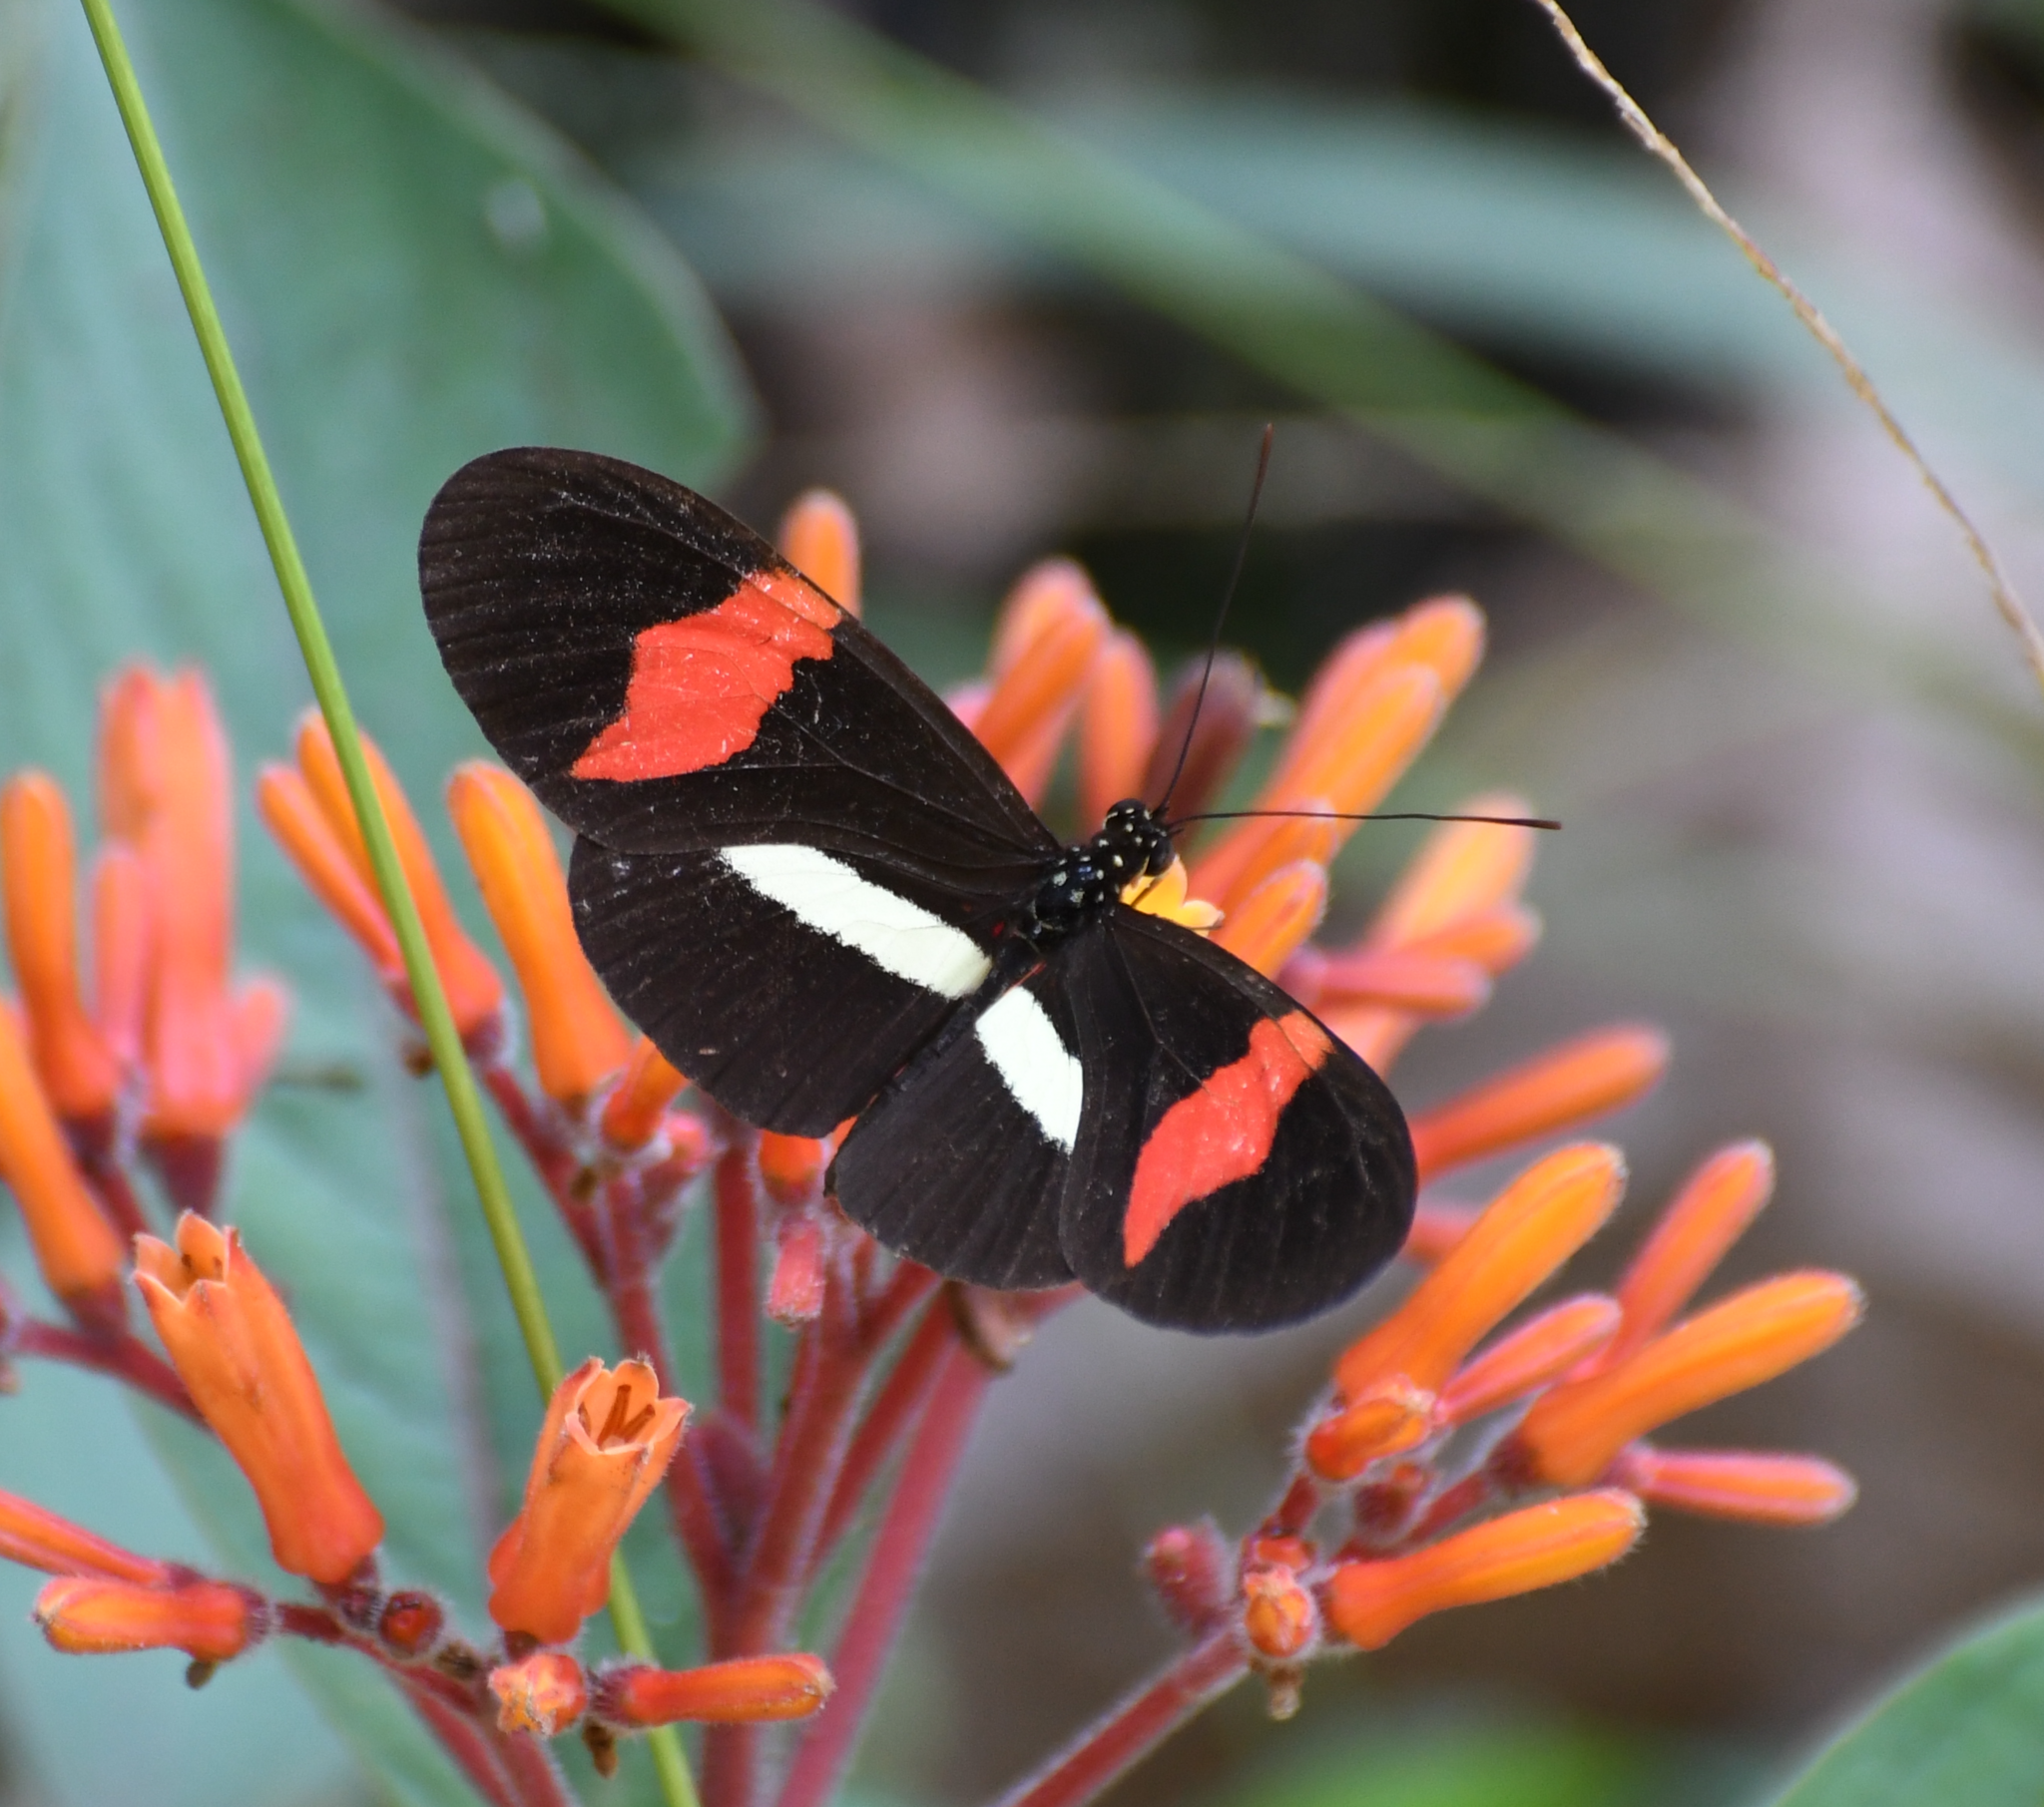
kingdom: Animalia
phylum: Arthropoda
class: Insecta
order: Lepidoptera
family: Nymphalidae
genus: Tirumala
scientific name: Tirumala petiverana
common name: Blue monarch
